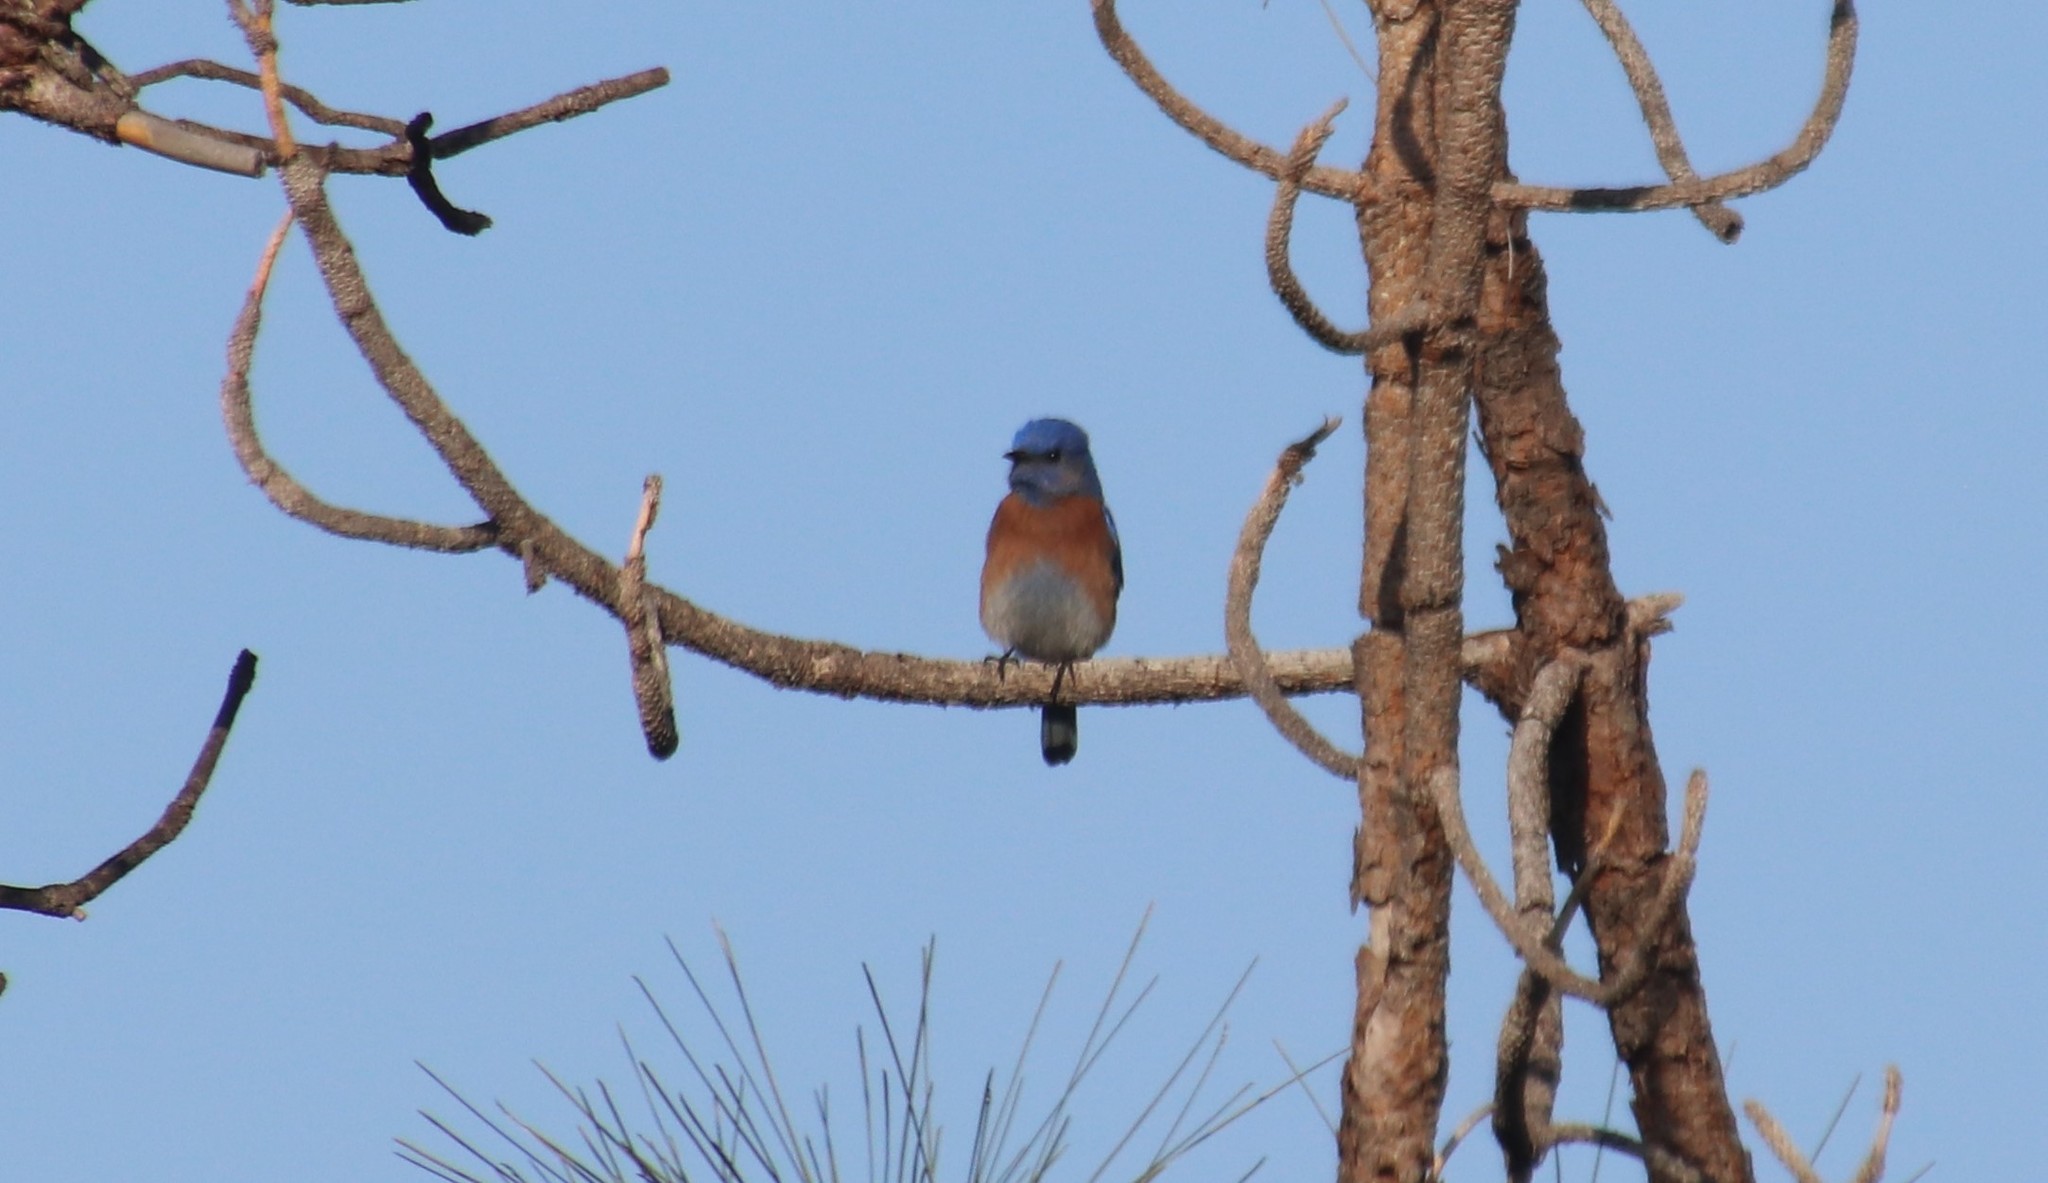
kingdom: Animalia
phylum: Chordata
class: Aves
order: Passeriformes
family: Turdidae
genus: Sialia
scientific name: Sialia mexicana
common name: Western bluebird
